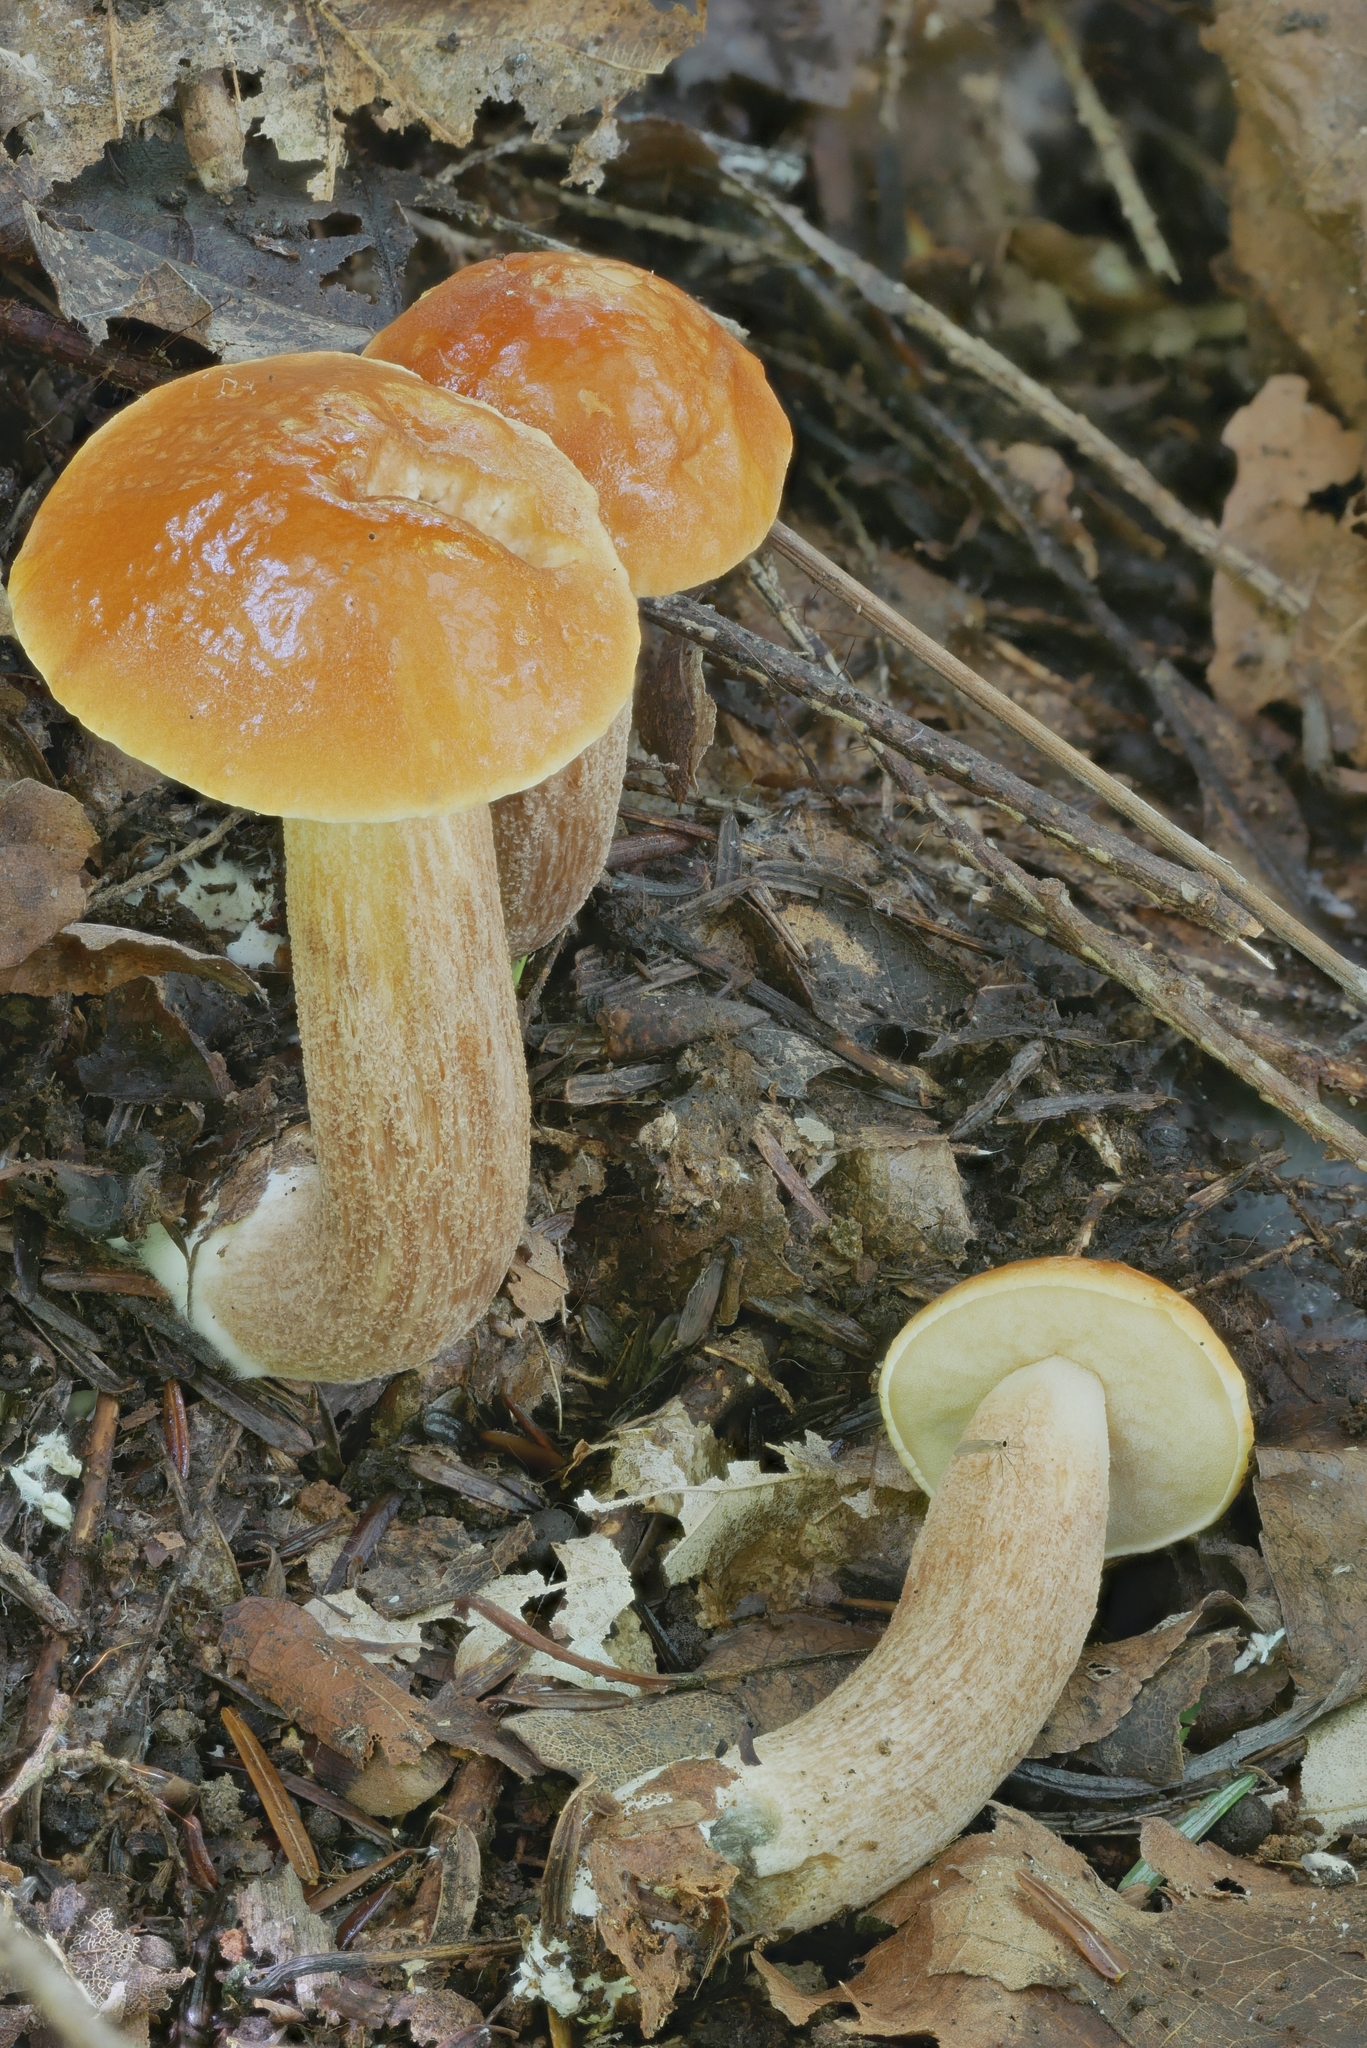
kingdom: Fungi
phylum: Basidiomycota
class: Agaricomycetes
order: Boletales
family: Boletaceae
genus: Leccinum
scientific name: Leccinum longicurvipes
